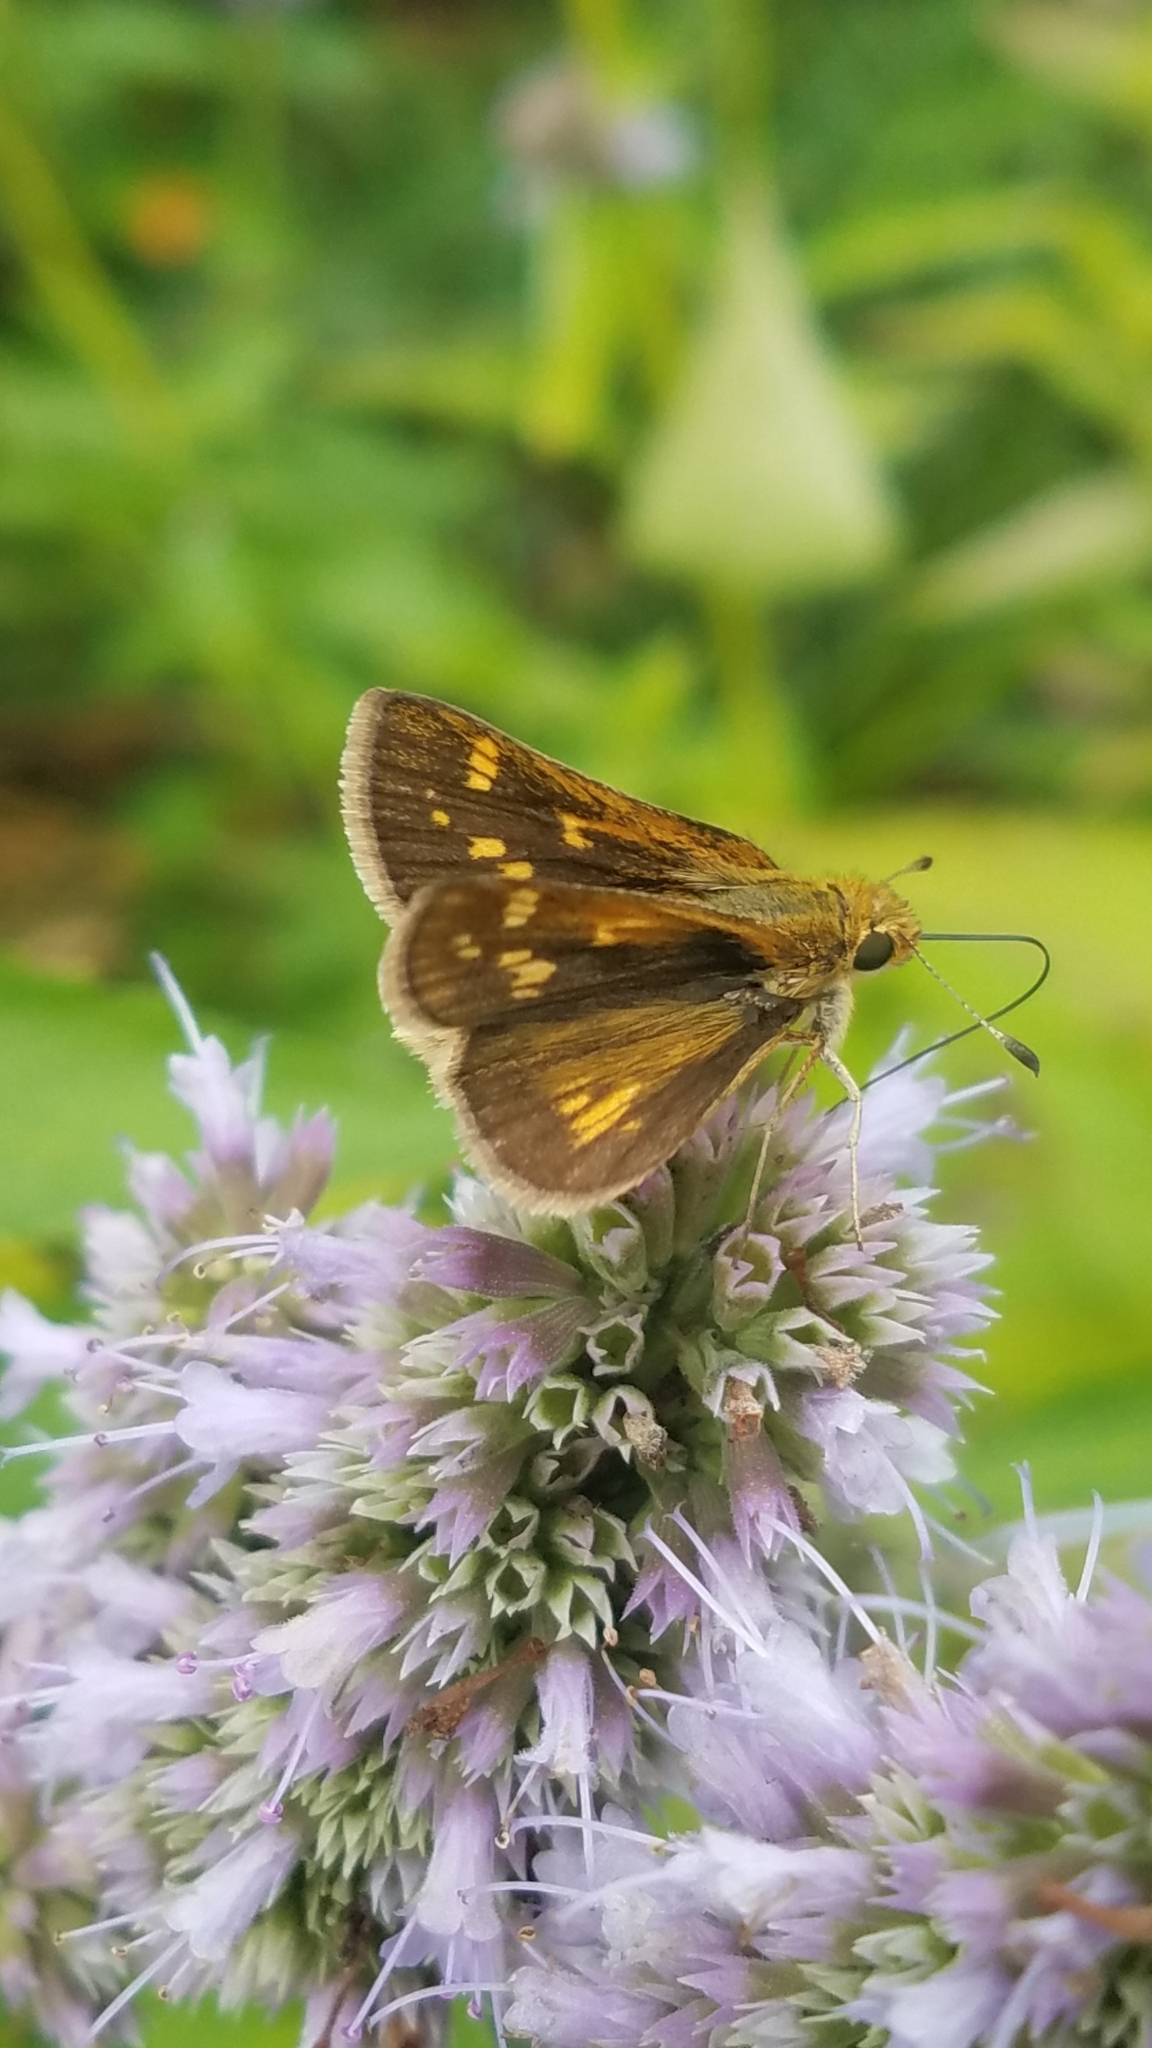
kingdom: Animalia
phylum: Arthropoda
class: Insecta
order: Lepidoptera
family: Hesperiidae
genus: Polites
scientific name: Polites coras
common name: Peck's skipper
